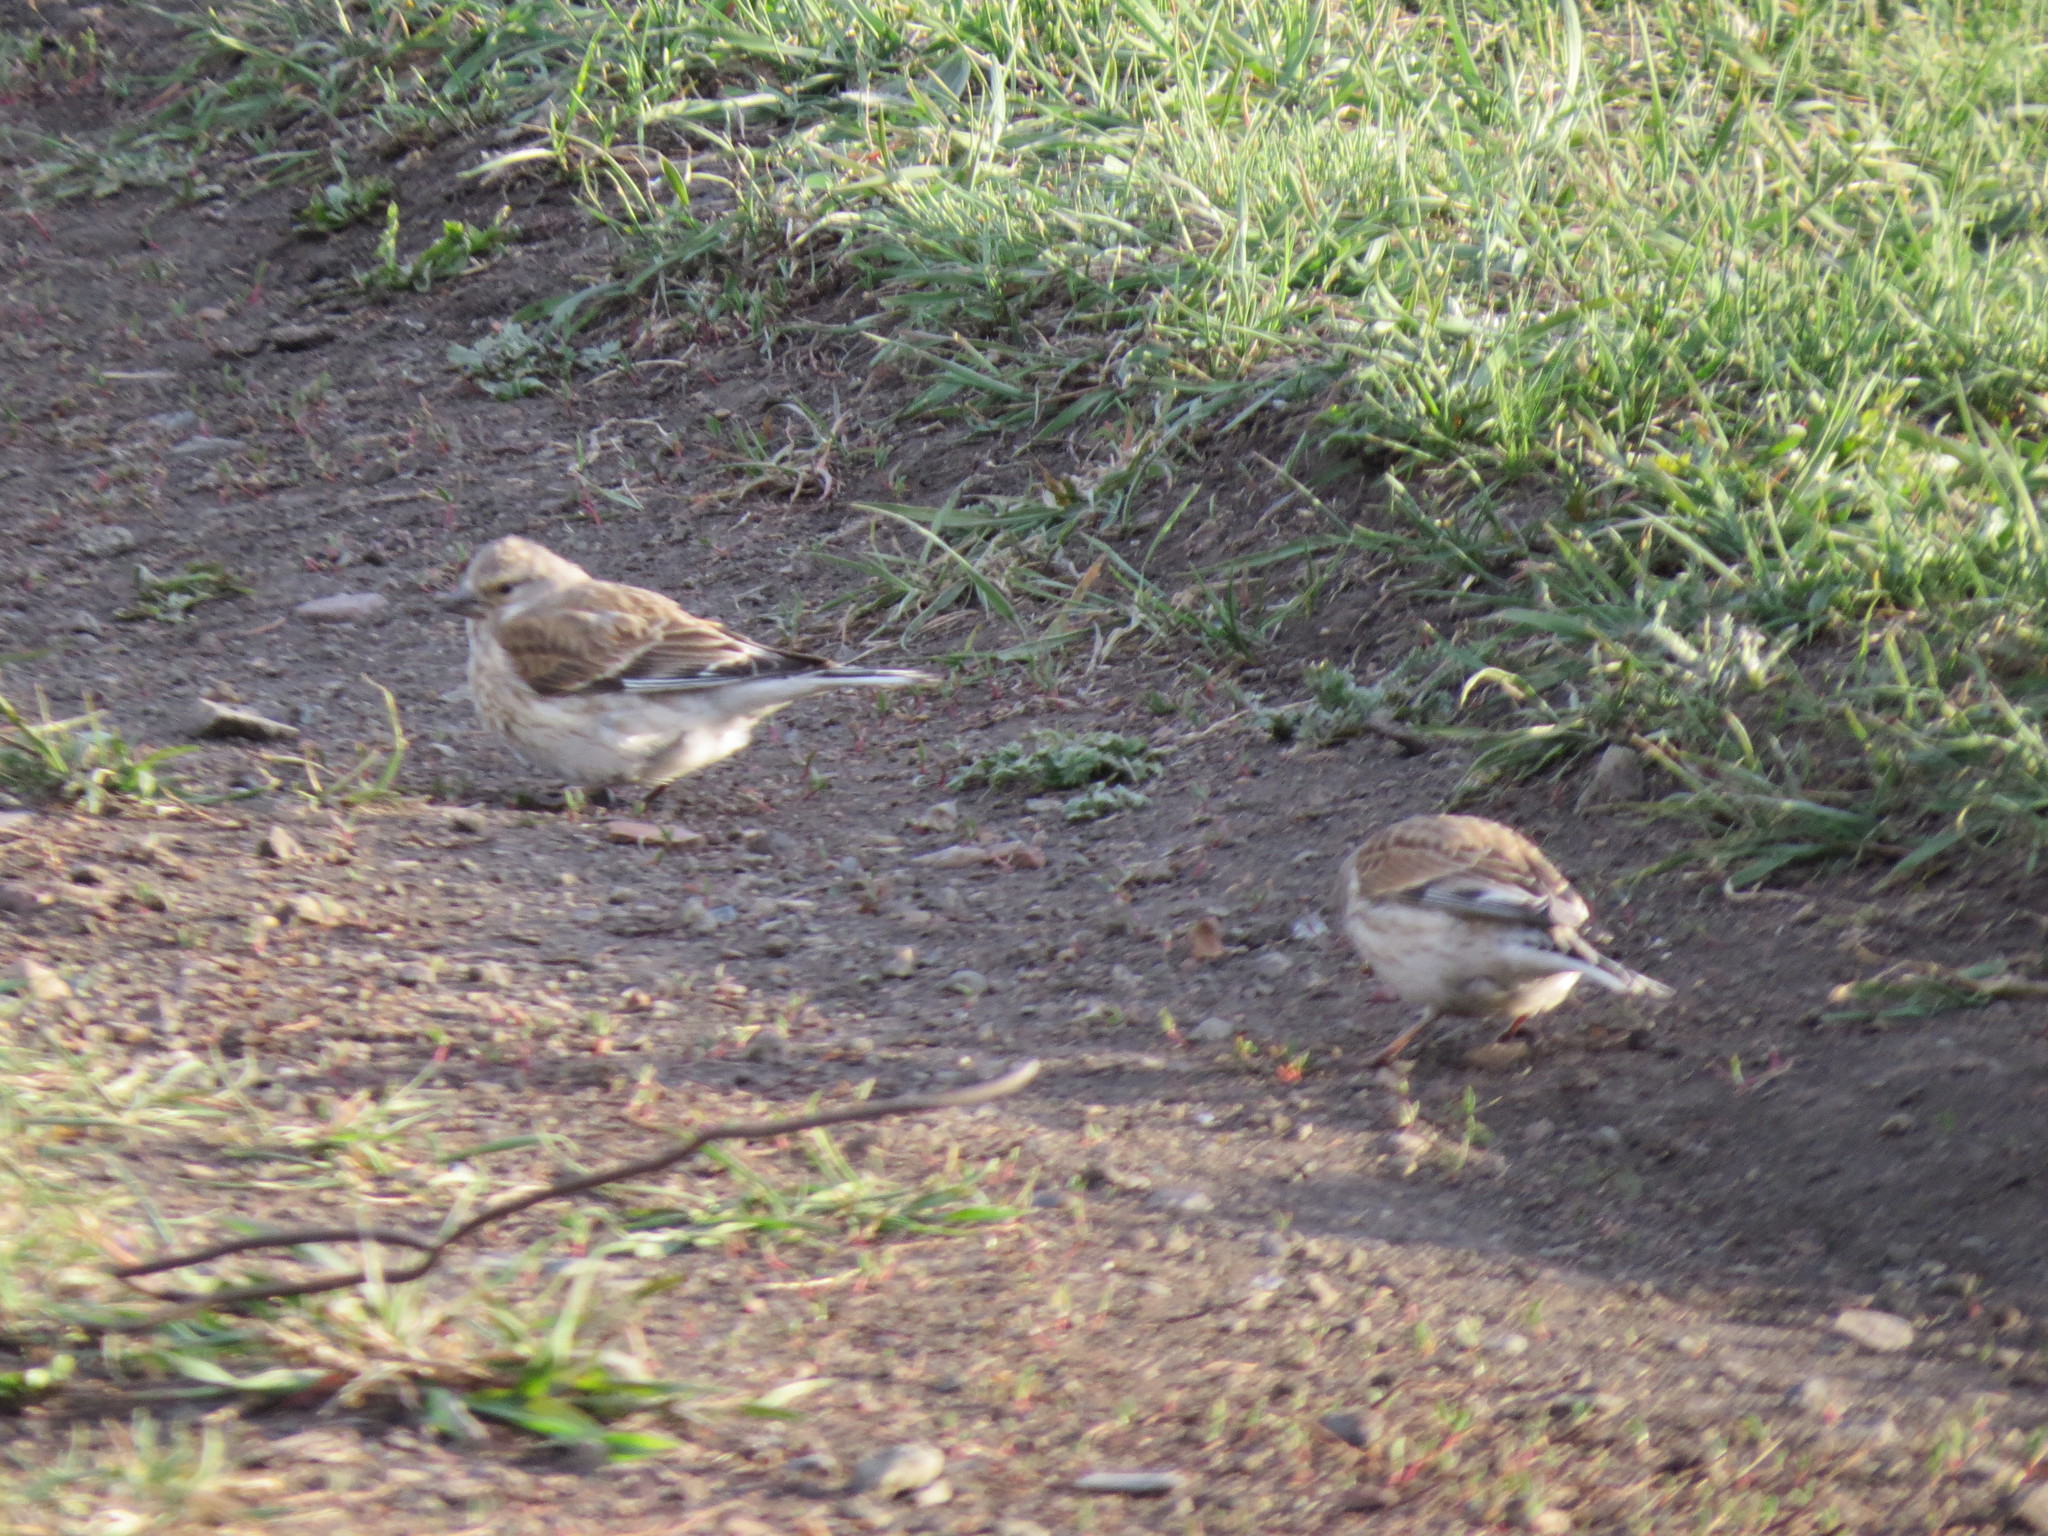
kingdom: Animalia
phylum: Chordata
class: Aves
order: Passeriformes
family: Fringillidae
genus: Linaria
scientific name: Linaria cannabina
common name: Common linnet
